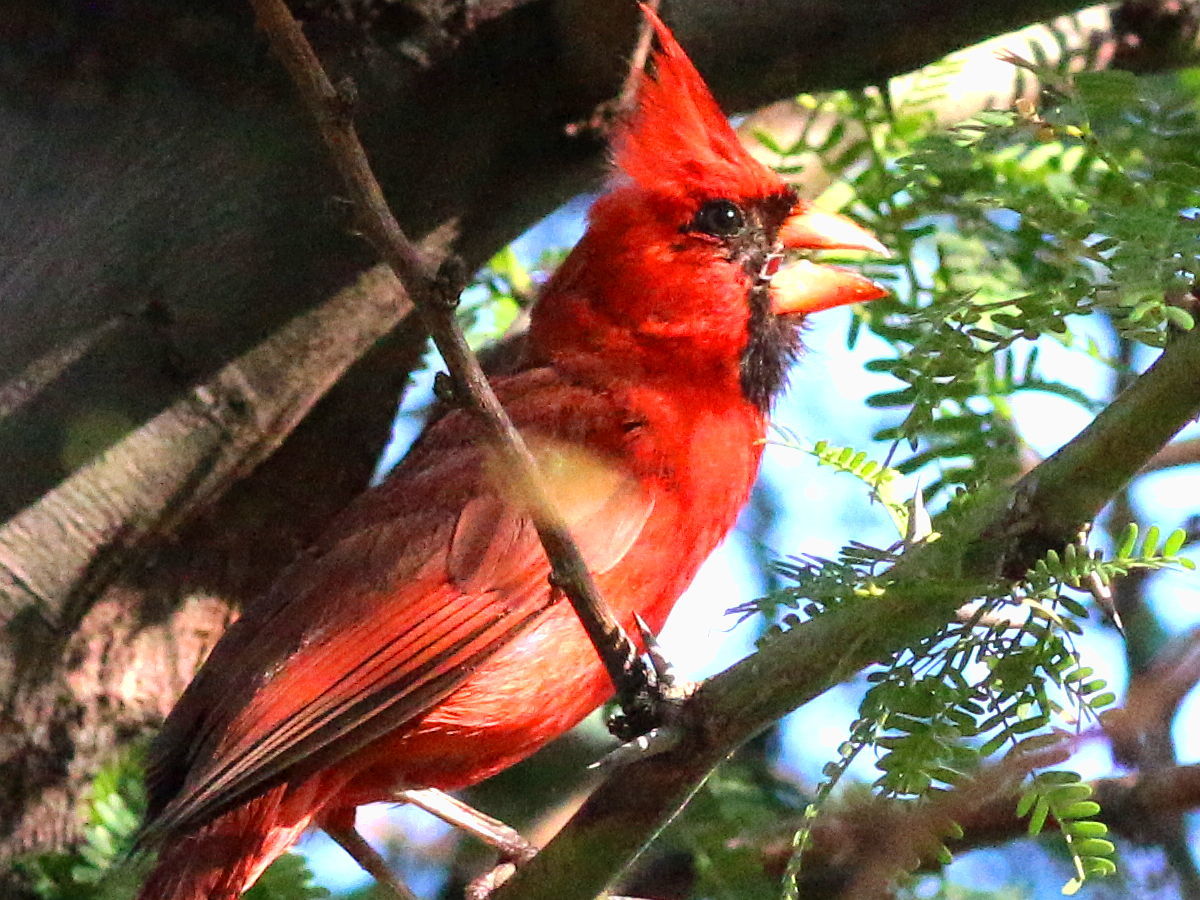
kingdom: Animalia
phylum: Chordata
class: Aves
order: Passeriformes
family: Cardinalidae
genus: Cardinalis
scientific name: Cardinalis cardinalis
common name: Northern cardinal
